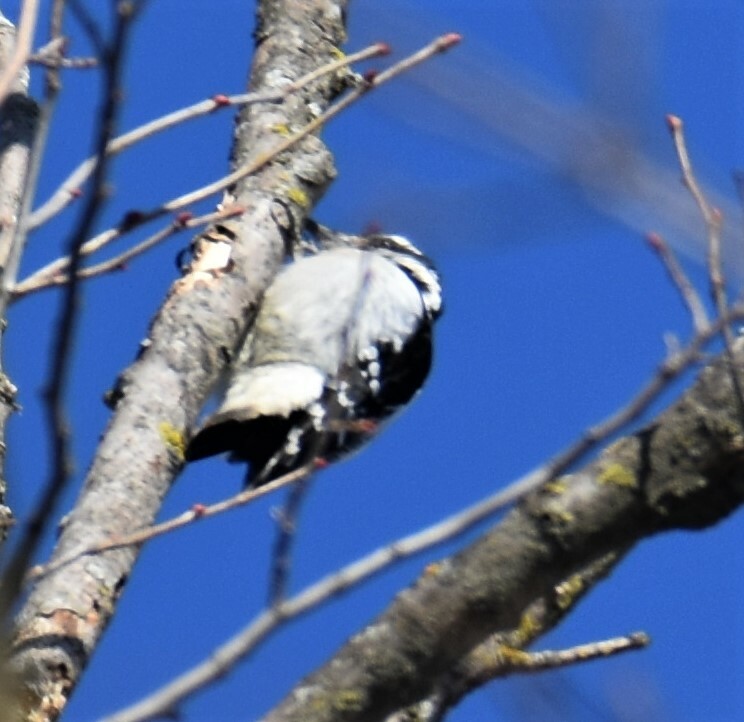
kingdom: Animalia
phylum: Chordata
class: Aves
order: Piciformes
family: Picidae
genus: Dryobates
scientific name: Dryobates pubescens
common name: Downy woodpecker
